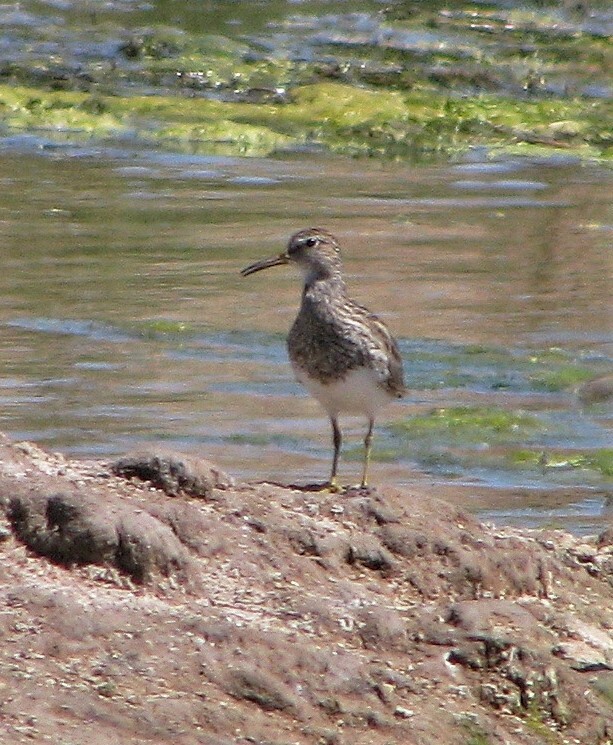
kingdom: Animalia
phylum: Chordata
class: Aves
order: Charadriiformes
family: Scolopacidae
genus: Calidris
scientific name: Calidris melanotos
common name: Pectoral sandpiper
